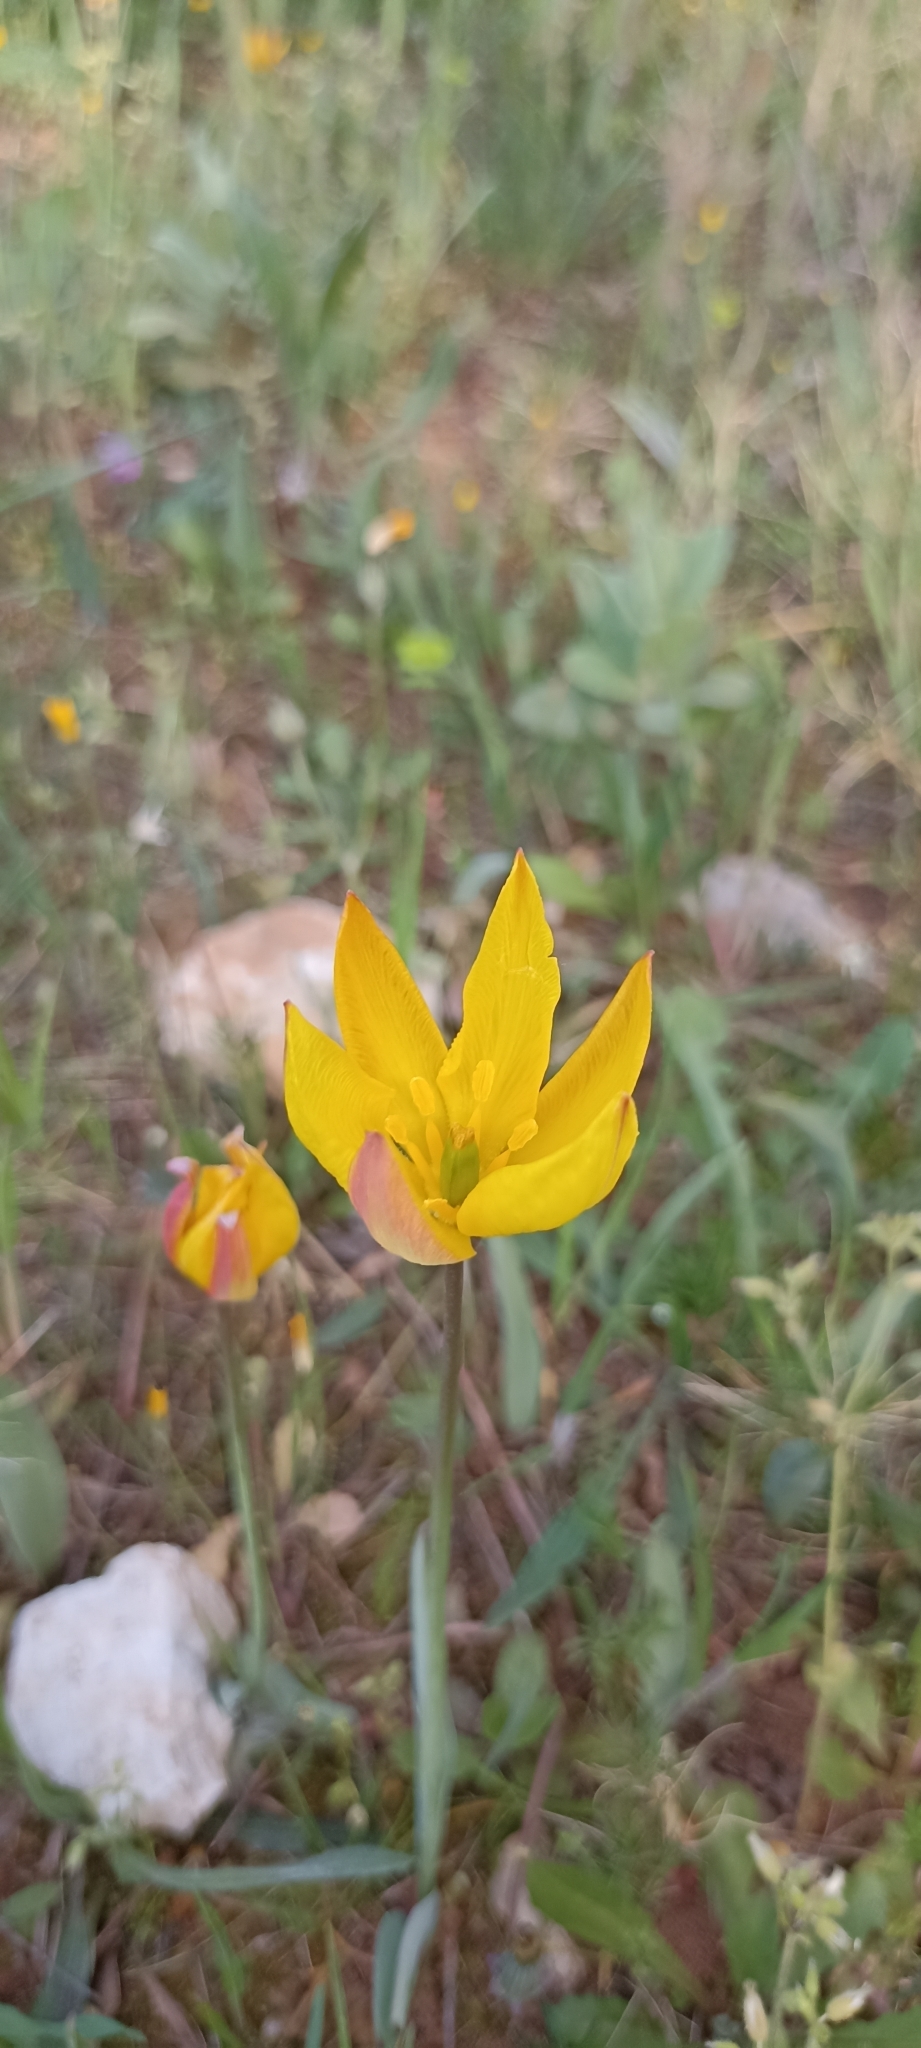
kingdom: Plantae
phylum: Tracheophyta
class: Liliopsida
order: Liliales
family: Liliaceae
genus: Tulipa
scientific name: Tulipa sylvestris
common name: Wild tulip
